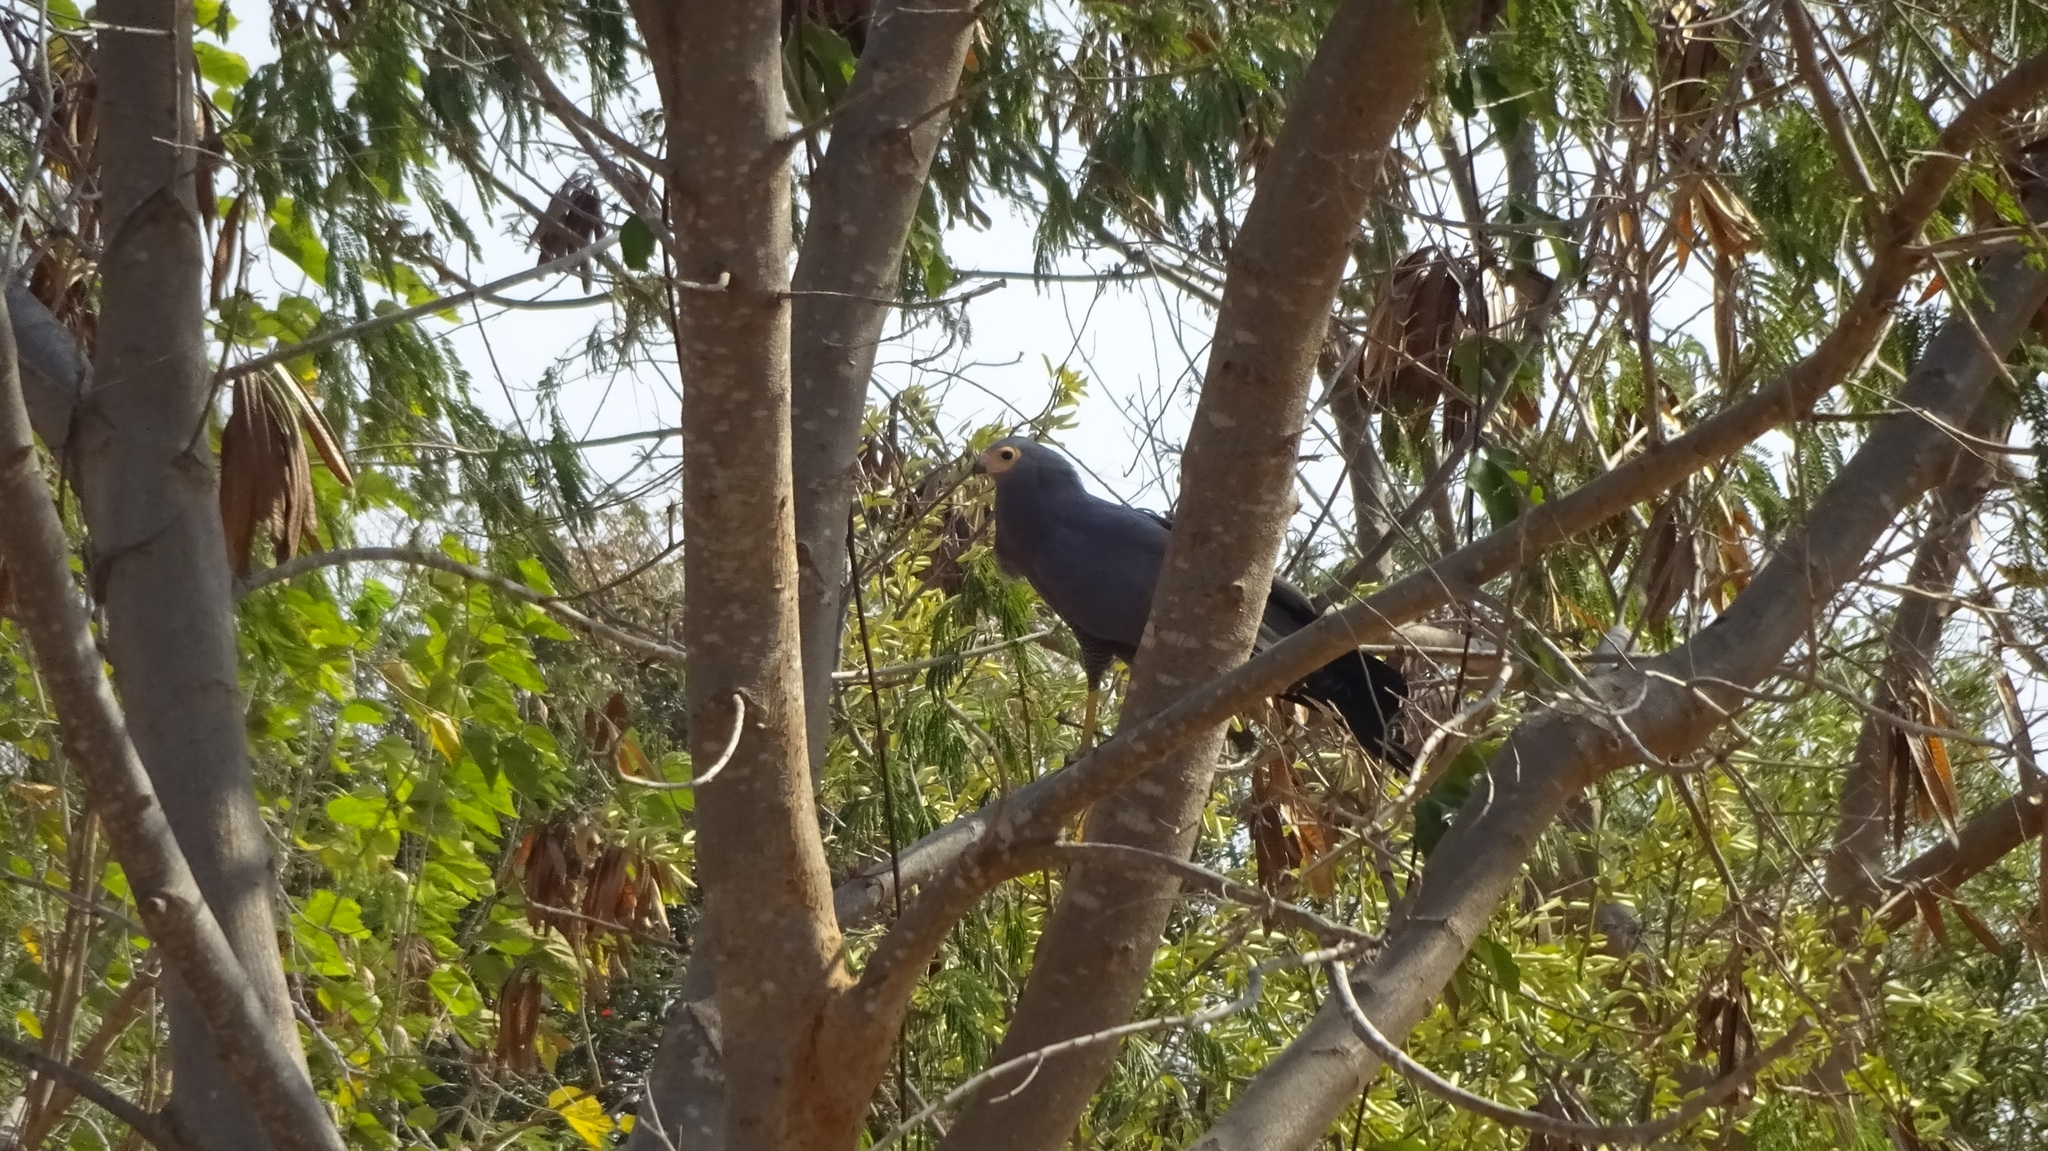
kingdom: Animalia
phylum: Chordata
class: Aves
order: Accipitriformes
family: Accipitridae
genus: Polyboroides
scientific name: Polyboroides typus
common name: African harrier-hawk
